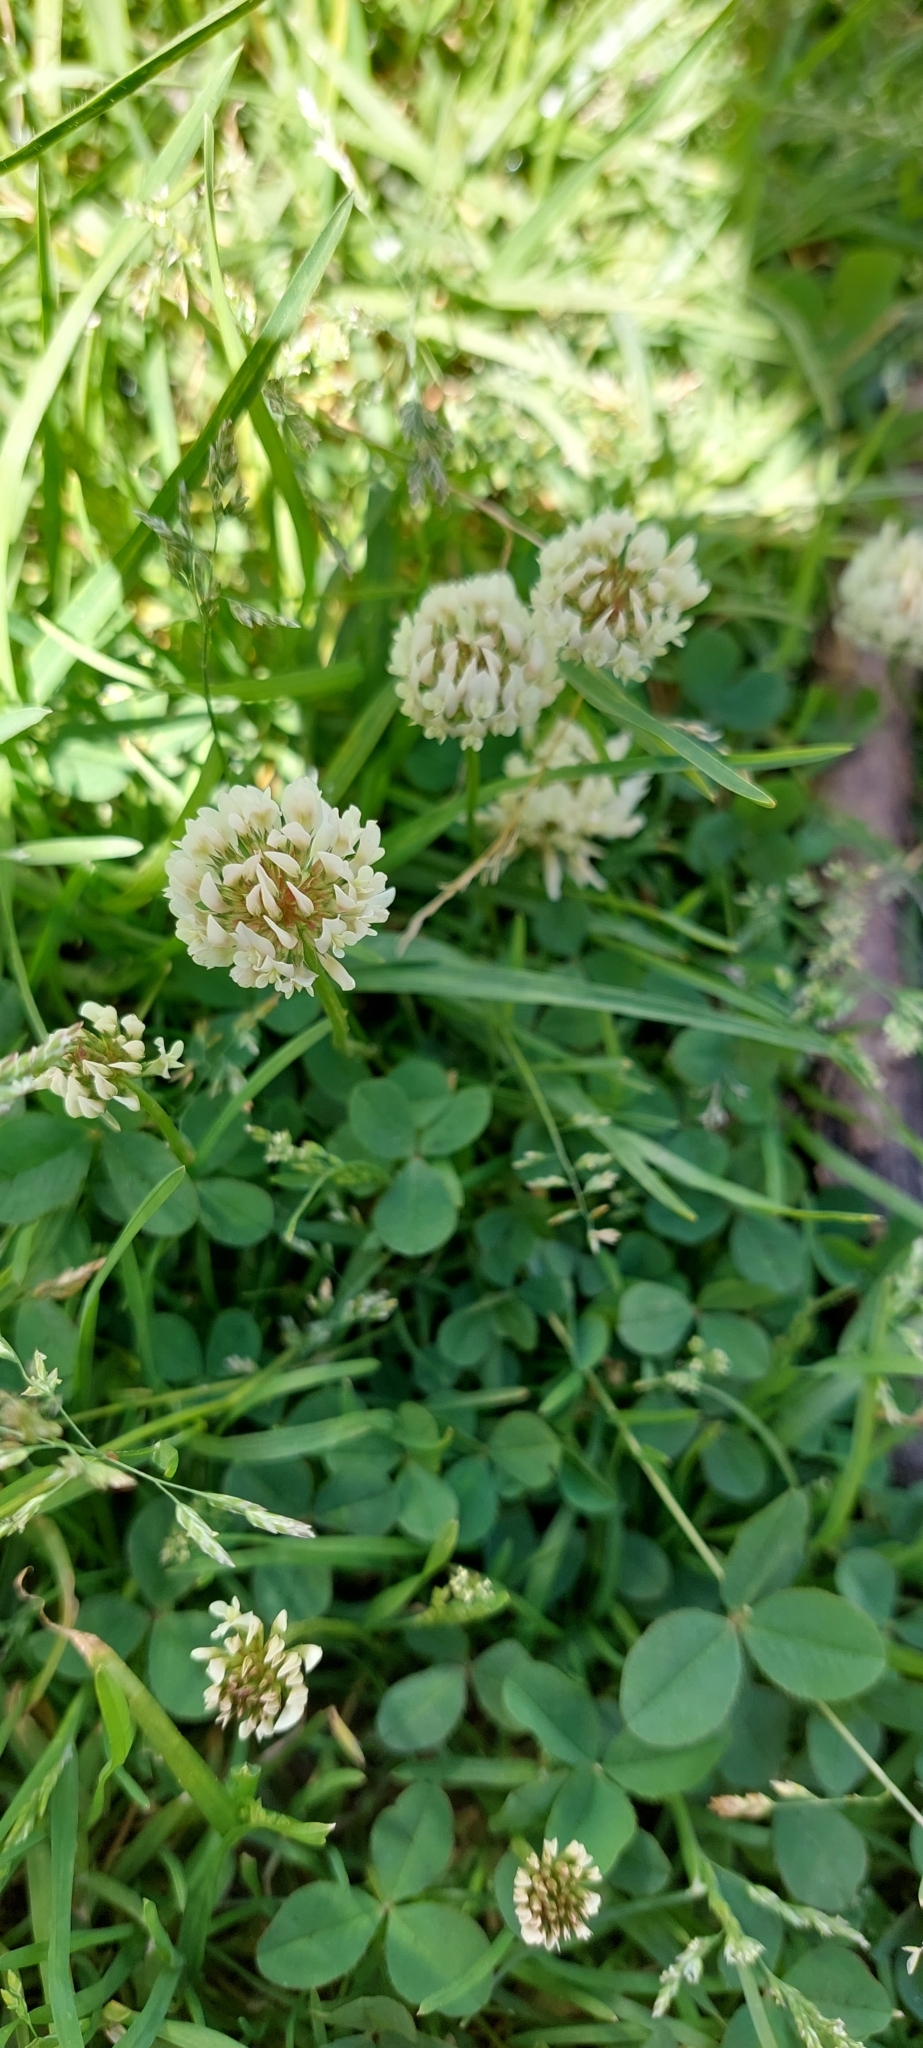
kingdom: Plantae
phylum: Tracheophyta
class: Magnoliopsida
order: Fabales
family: Fabaceae
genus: Trifolium
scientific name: Trifolium repens
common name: White clover
